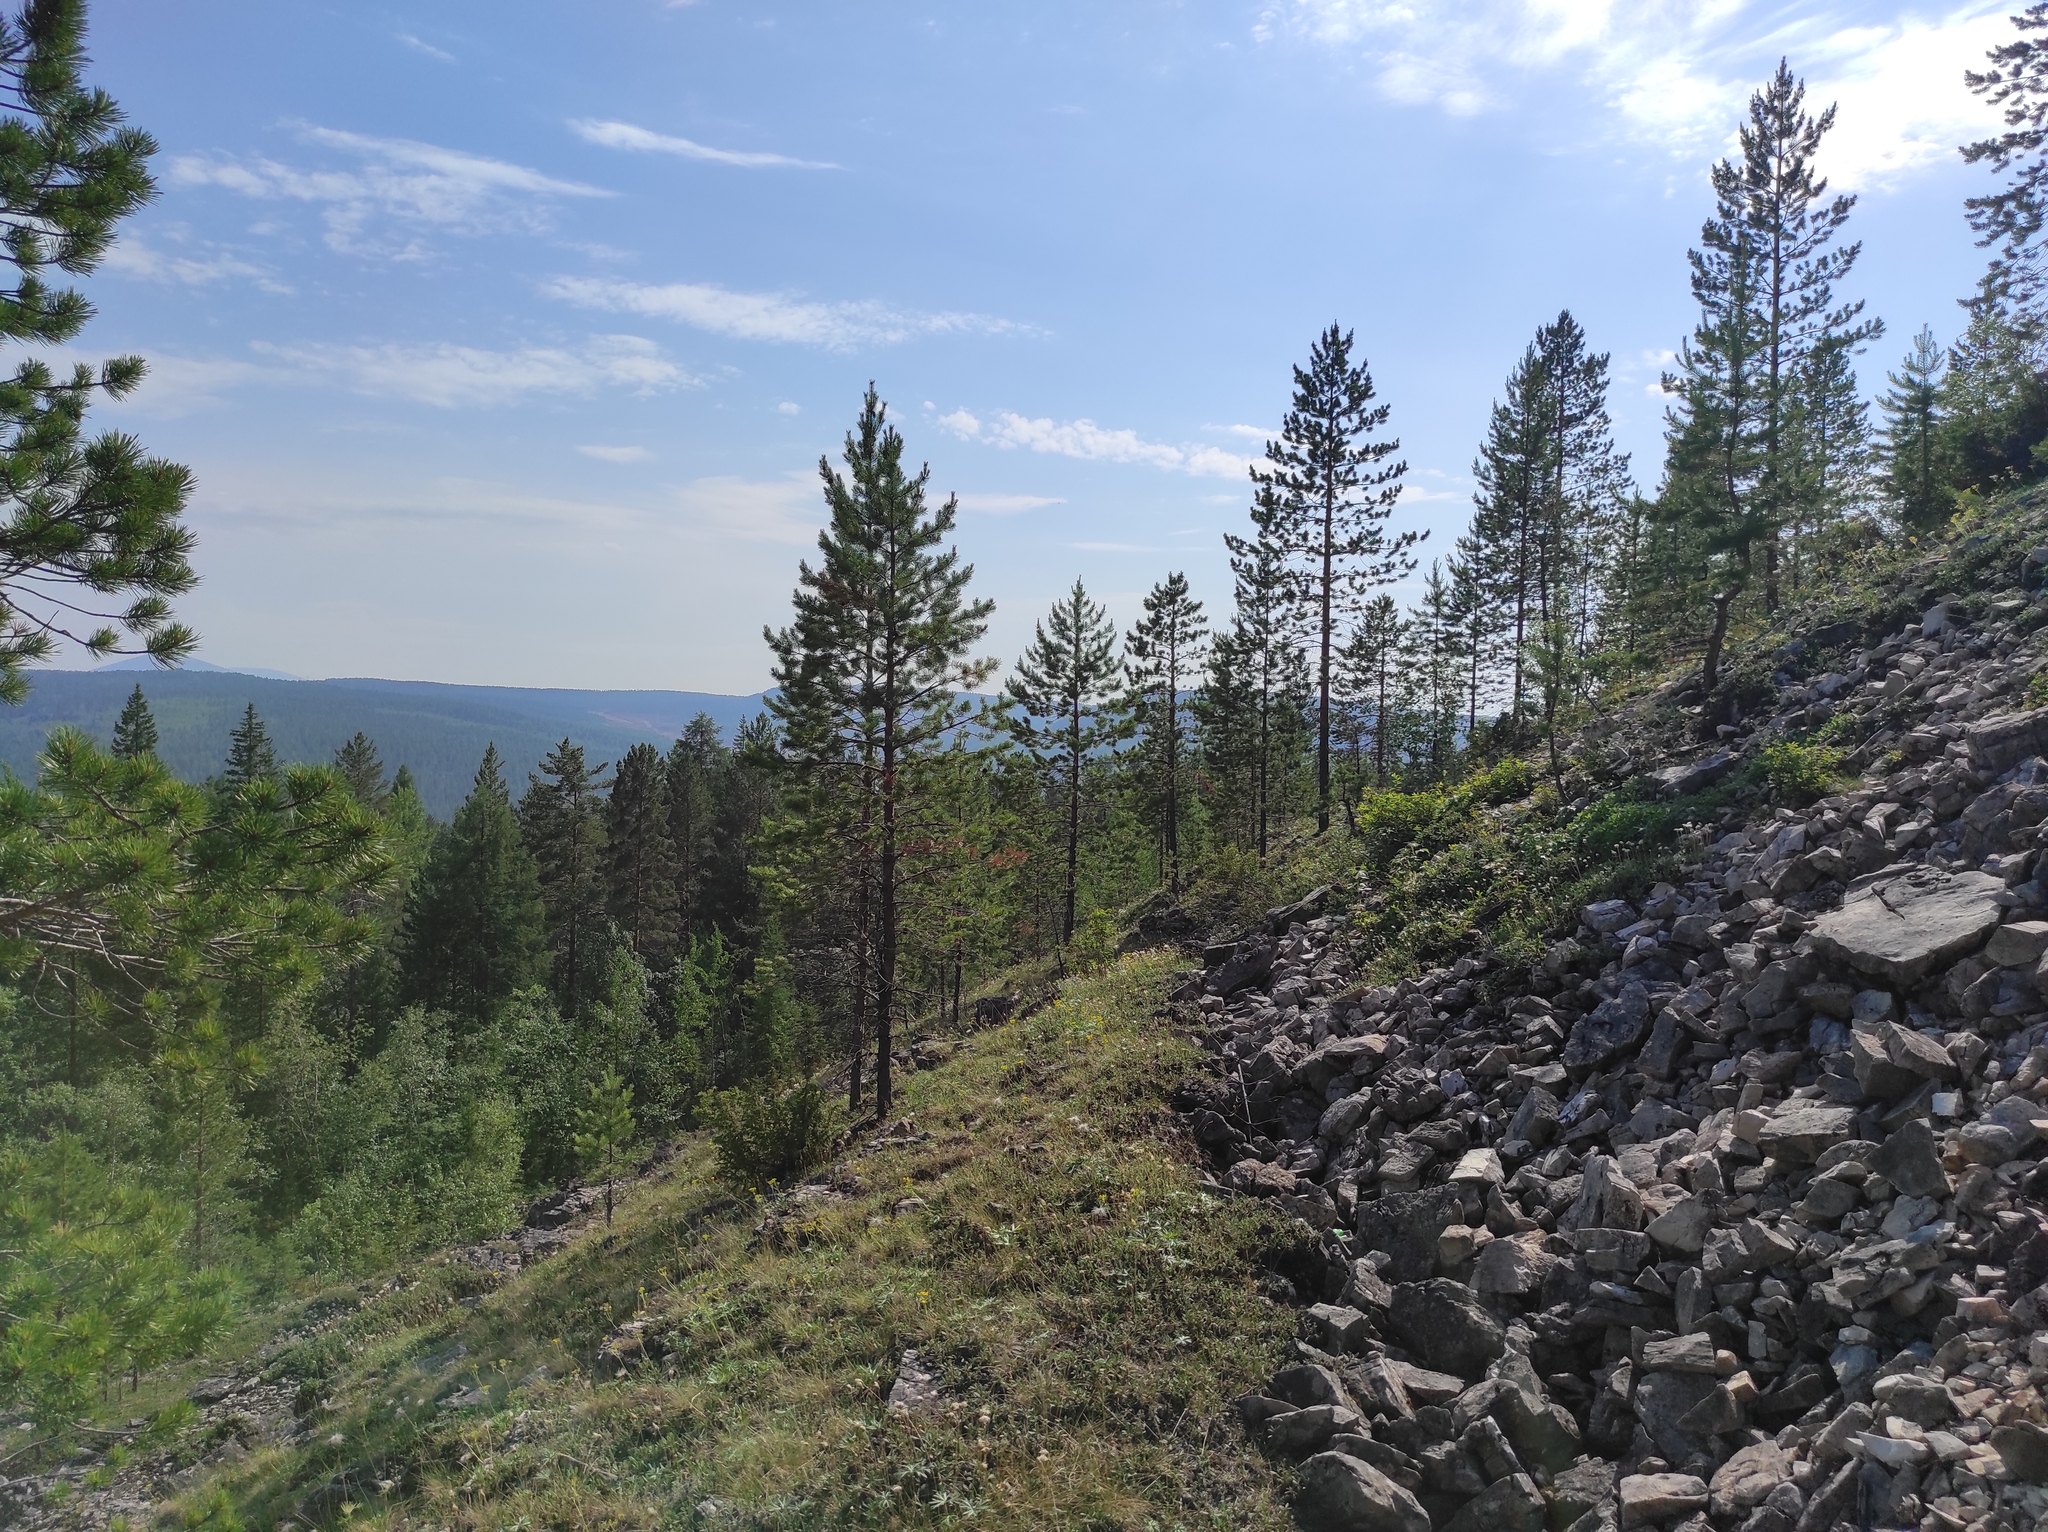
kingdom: Plantae
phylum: Tracheophyta
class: Pinopsida
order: Pinales
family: Pinaceae
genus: Pinus
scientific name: Pinus sylvestris
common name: Scots pine
